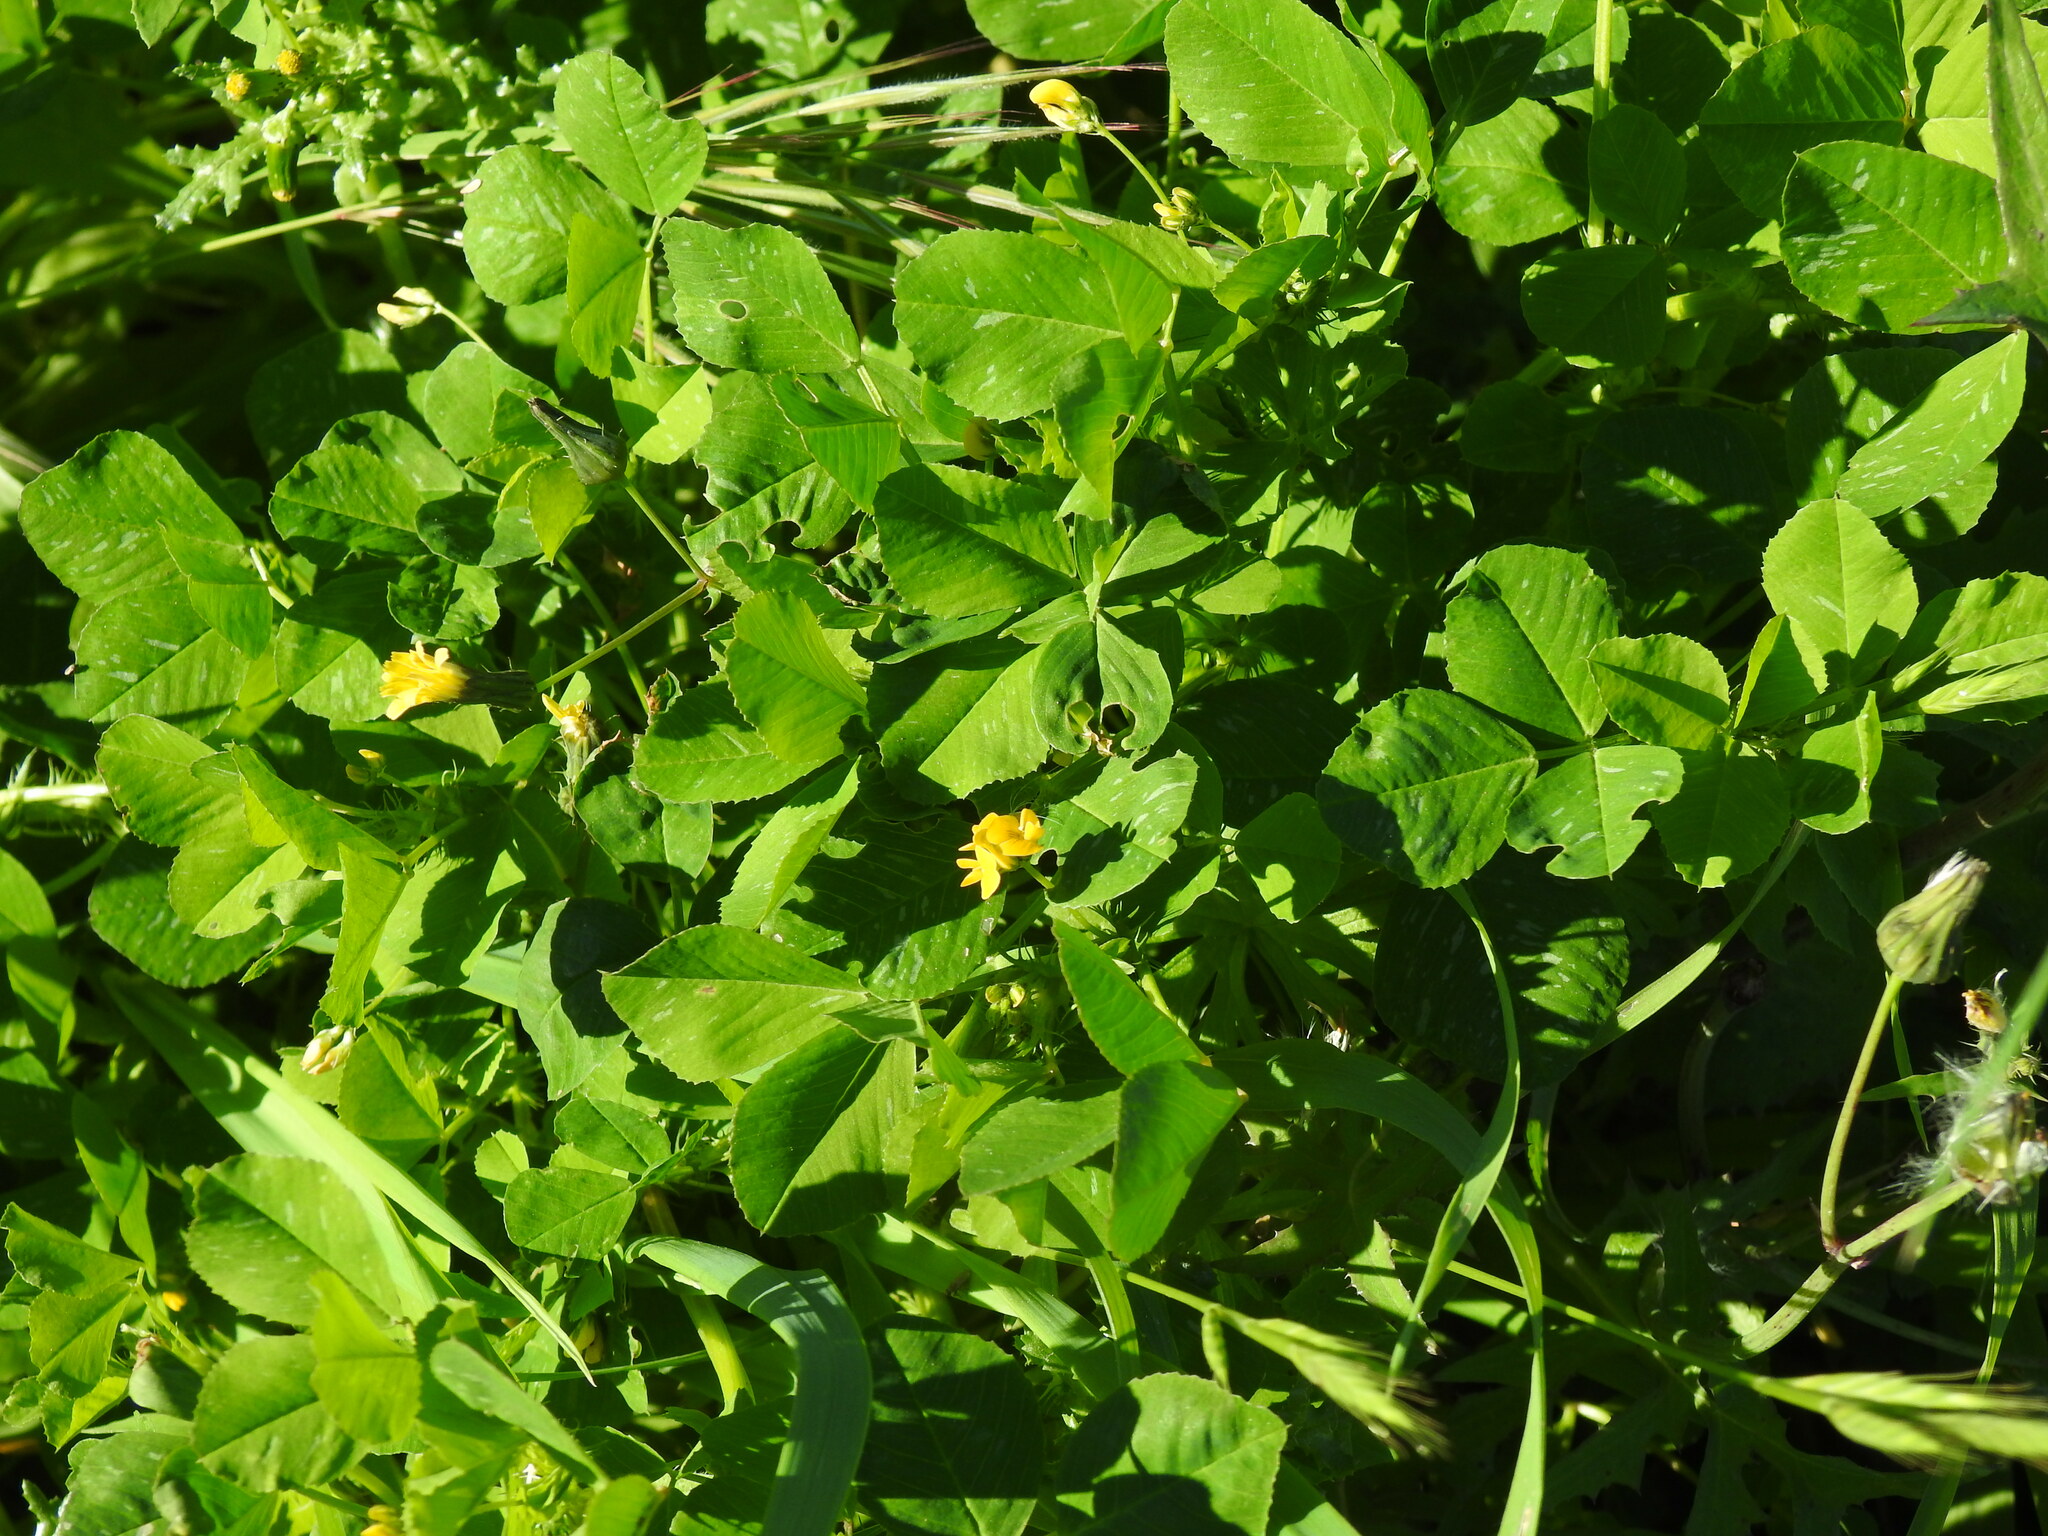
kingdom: Plantae
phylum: Tracheophyta
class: Magnoliopsida
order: Fabales
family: Fabaceae
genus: Medicago
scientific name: Medicago polymorpha
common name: Burclover
